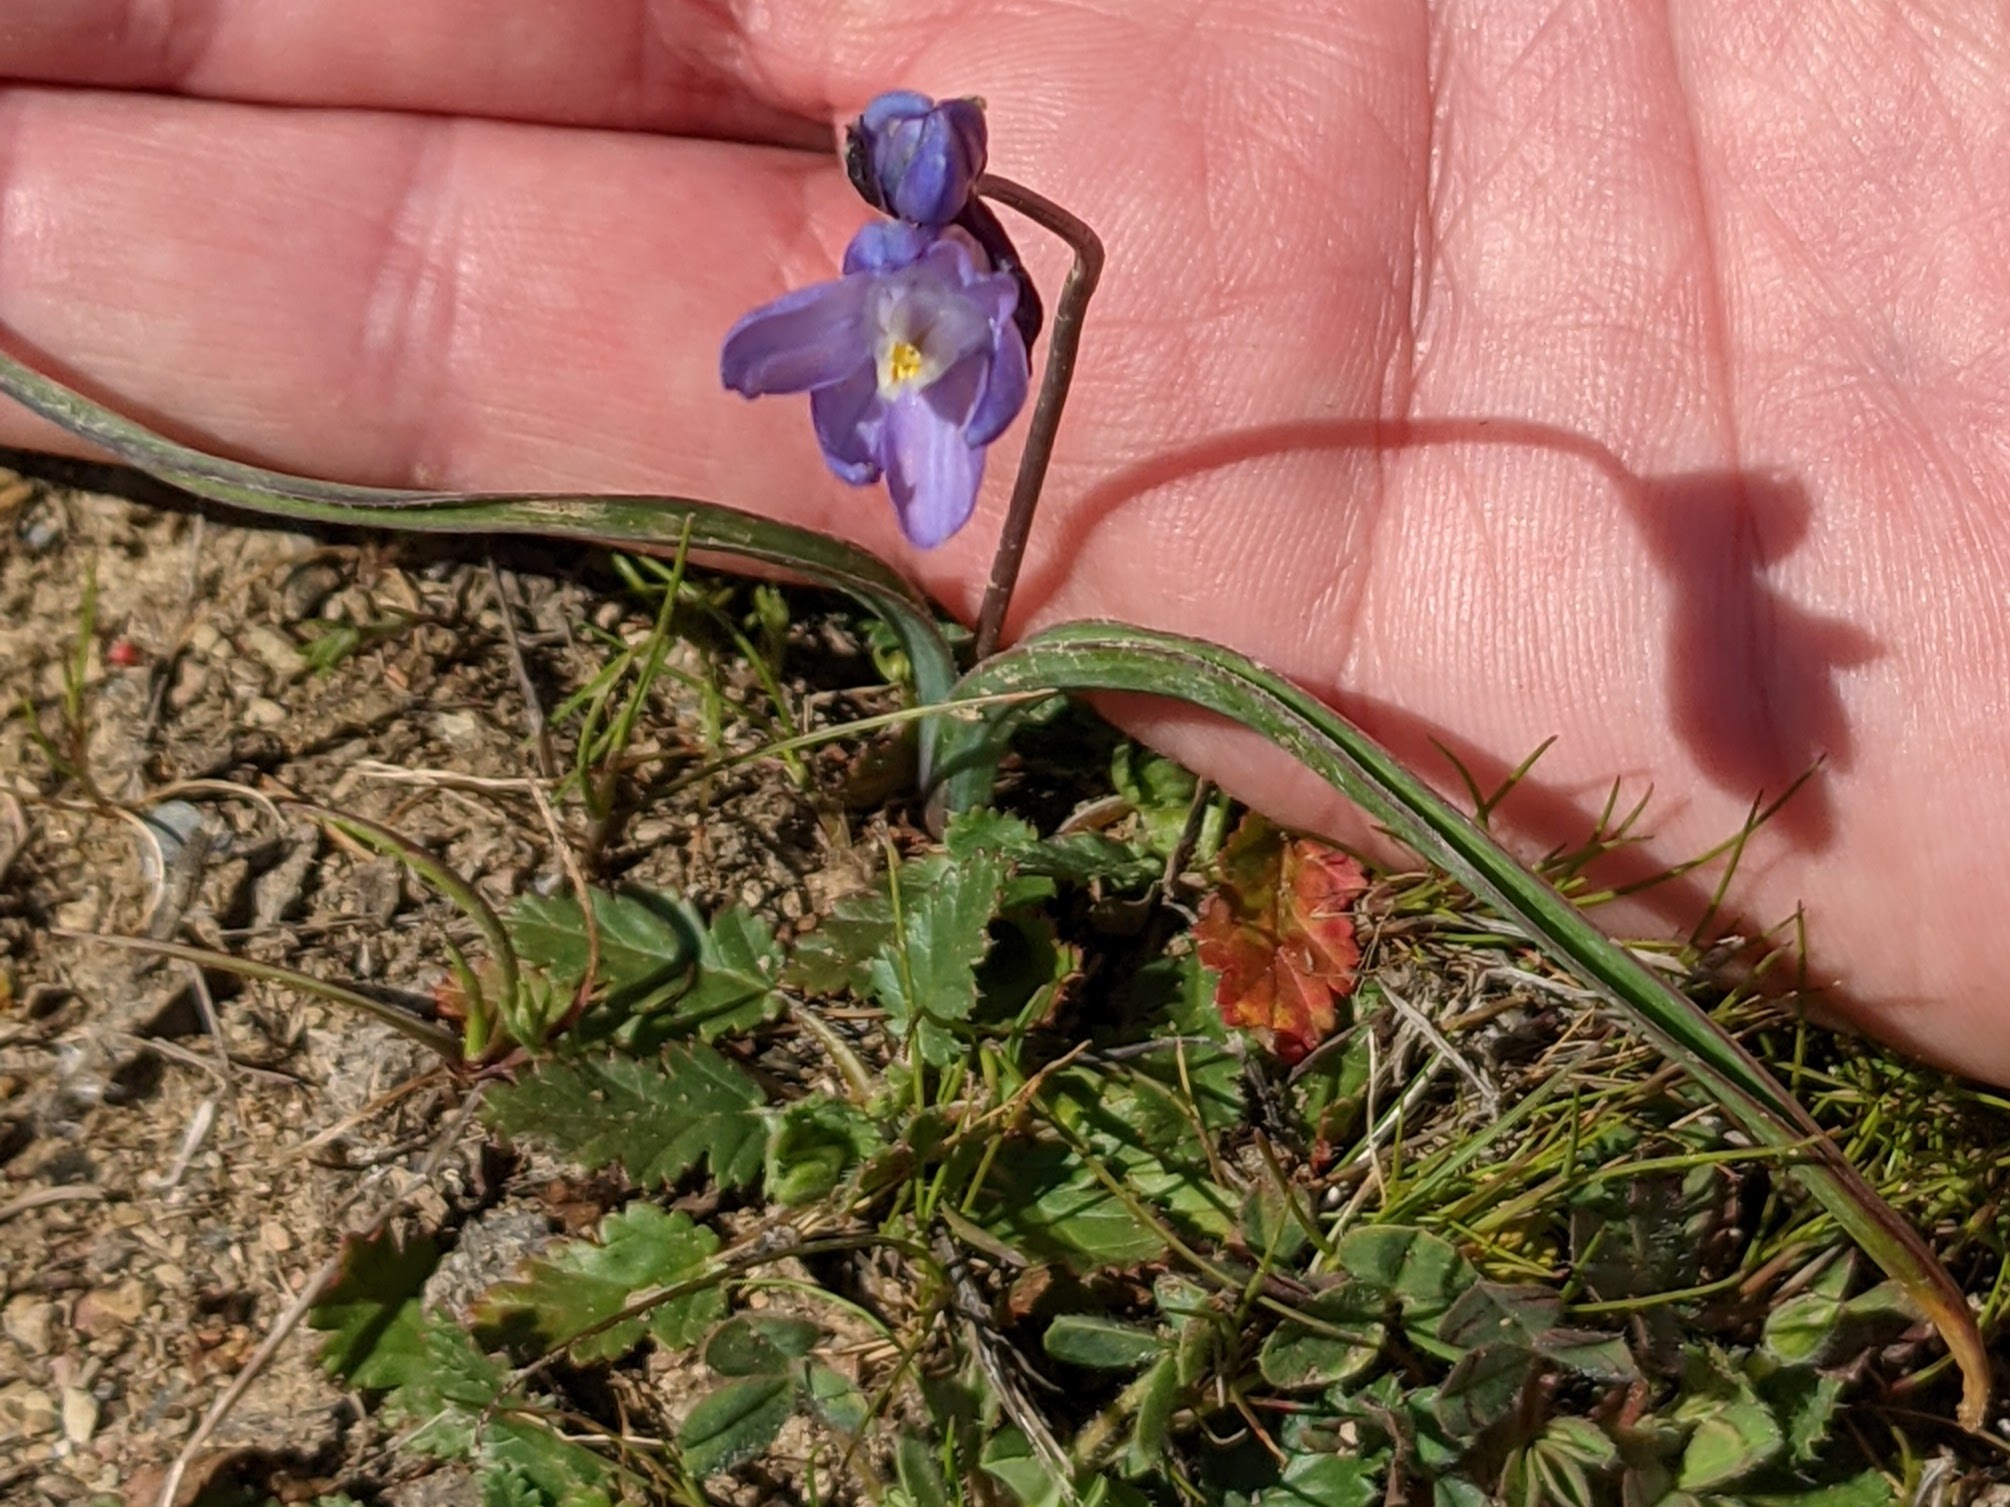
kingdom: Plantae
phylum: Tracheophyta
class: Liliopsida
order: Asparagales
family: Asparagaceae
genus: Dipterostemon
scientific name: Dipterostemon capitatus
